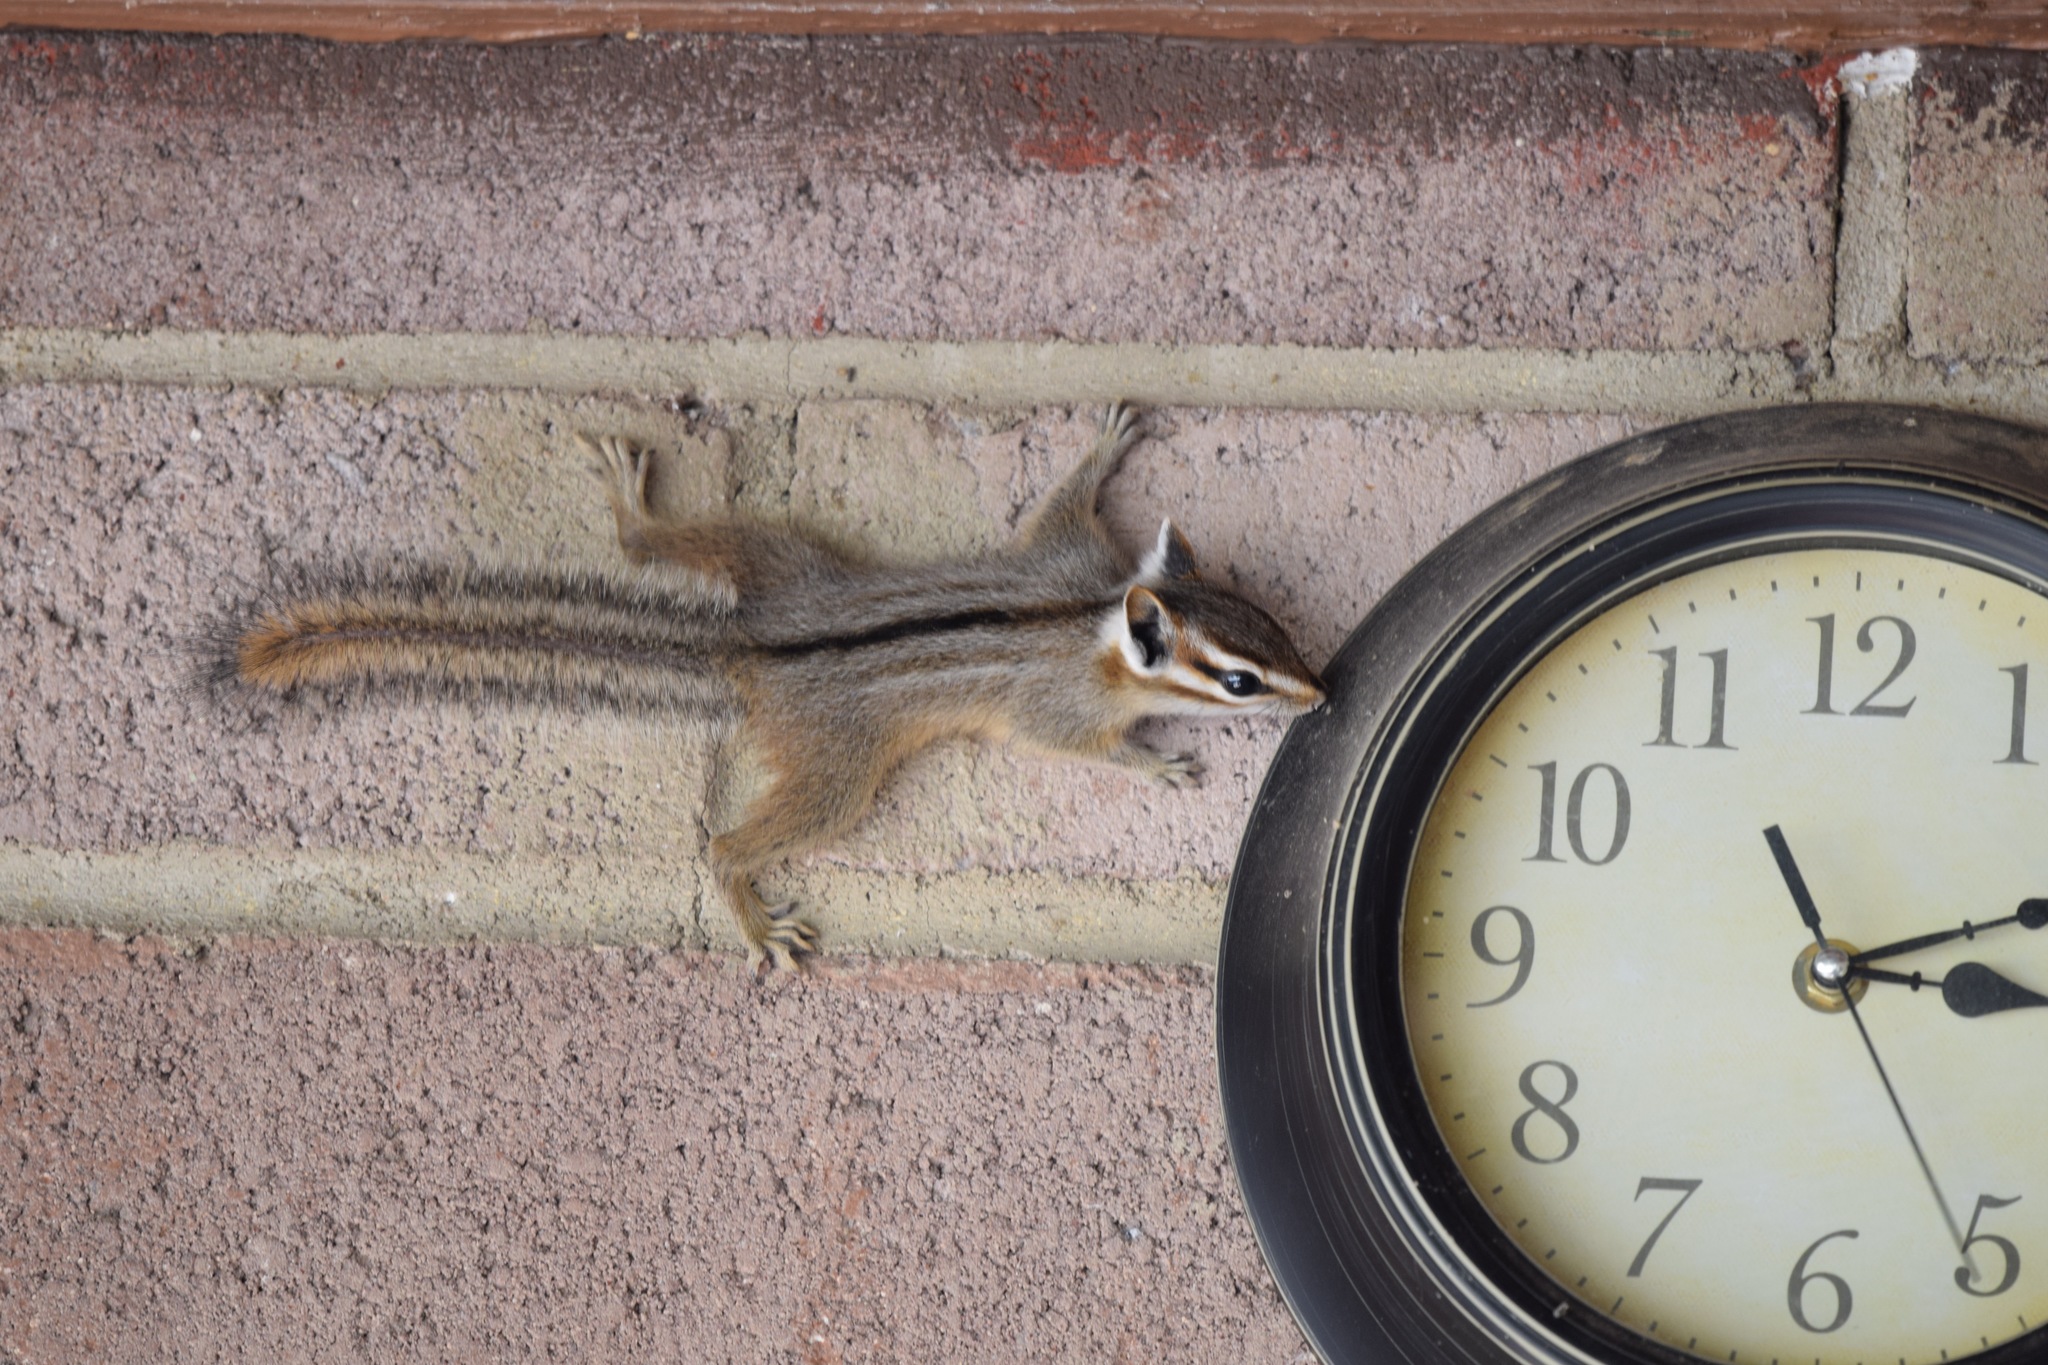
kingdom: Animalia
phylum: Chordata
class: Mammalia
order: Rodentia
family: Sciuridae
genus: Tamias
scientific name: Tamias dorsalis
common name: Cliff chipmunk
